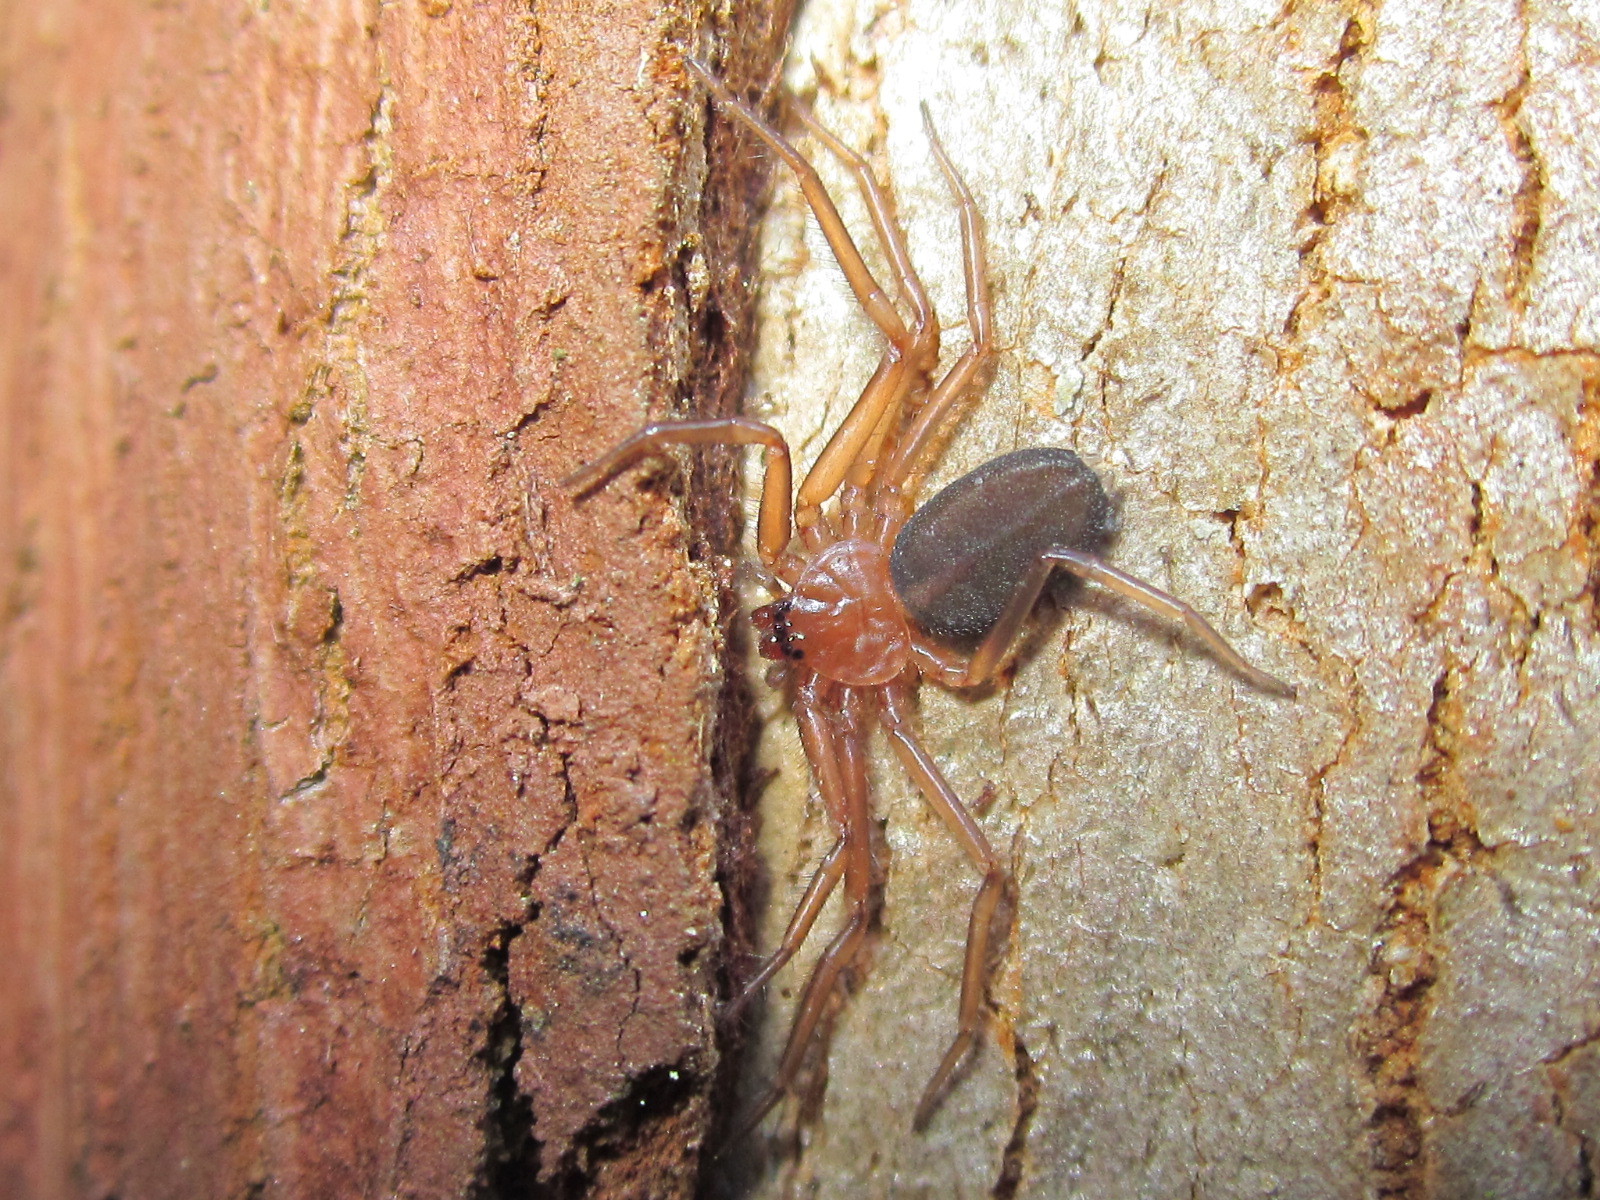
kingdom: Animalia
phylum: Arthropoda
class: Arachnida
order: Araneae
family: Trochanteriidae
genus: Doliomalus
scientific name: Doliomalus cimicoides
